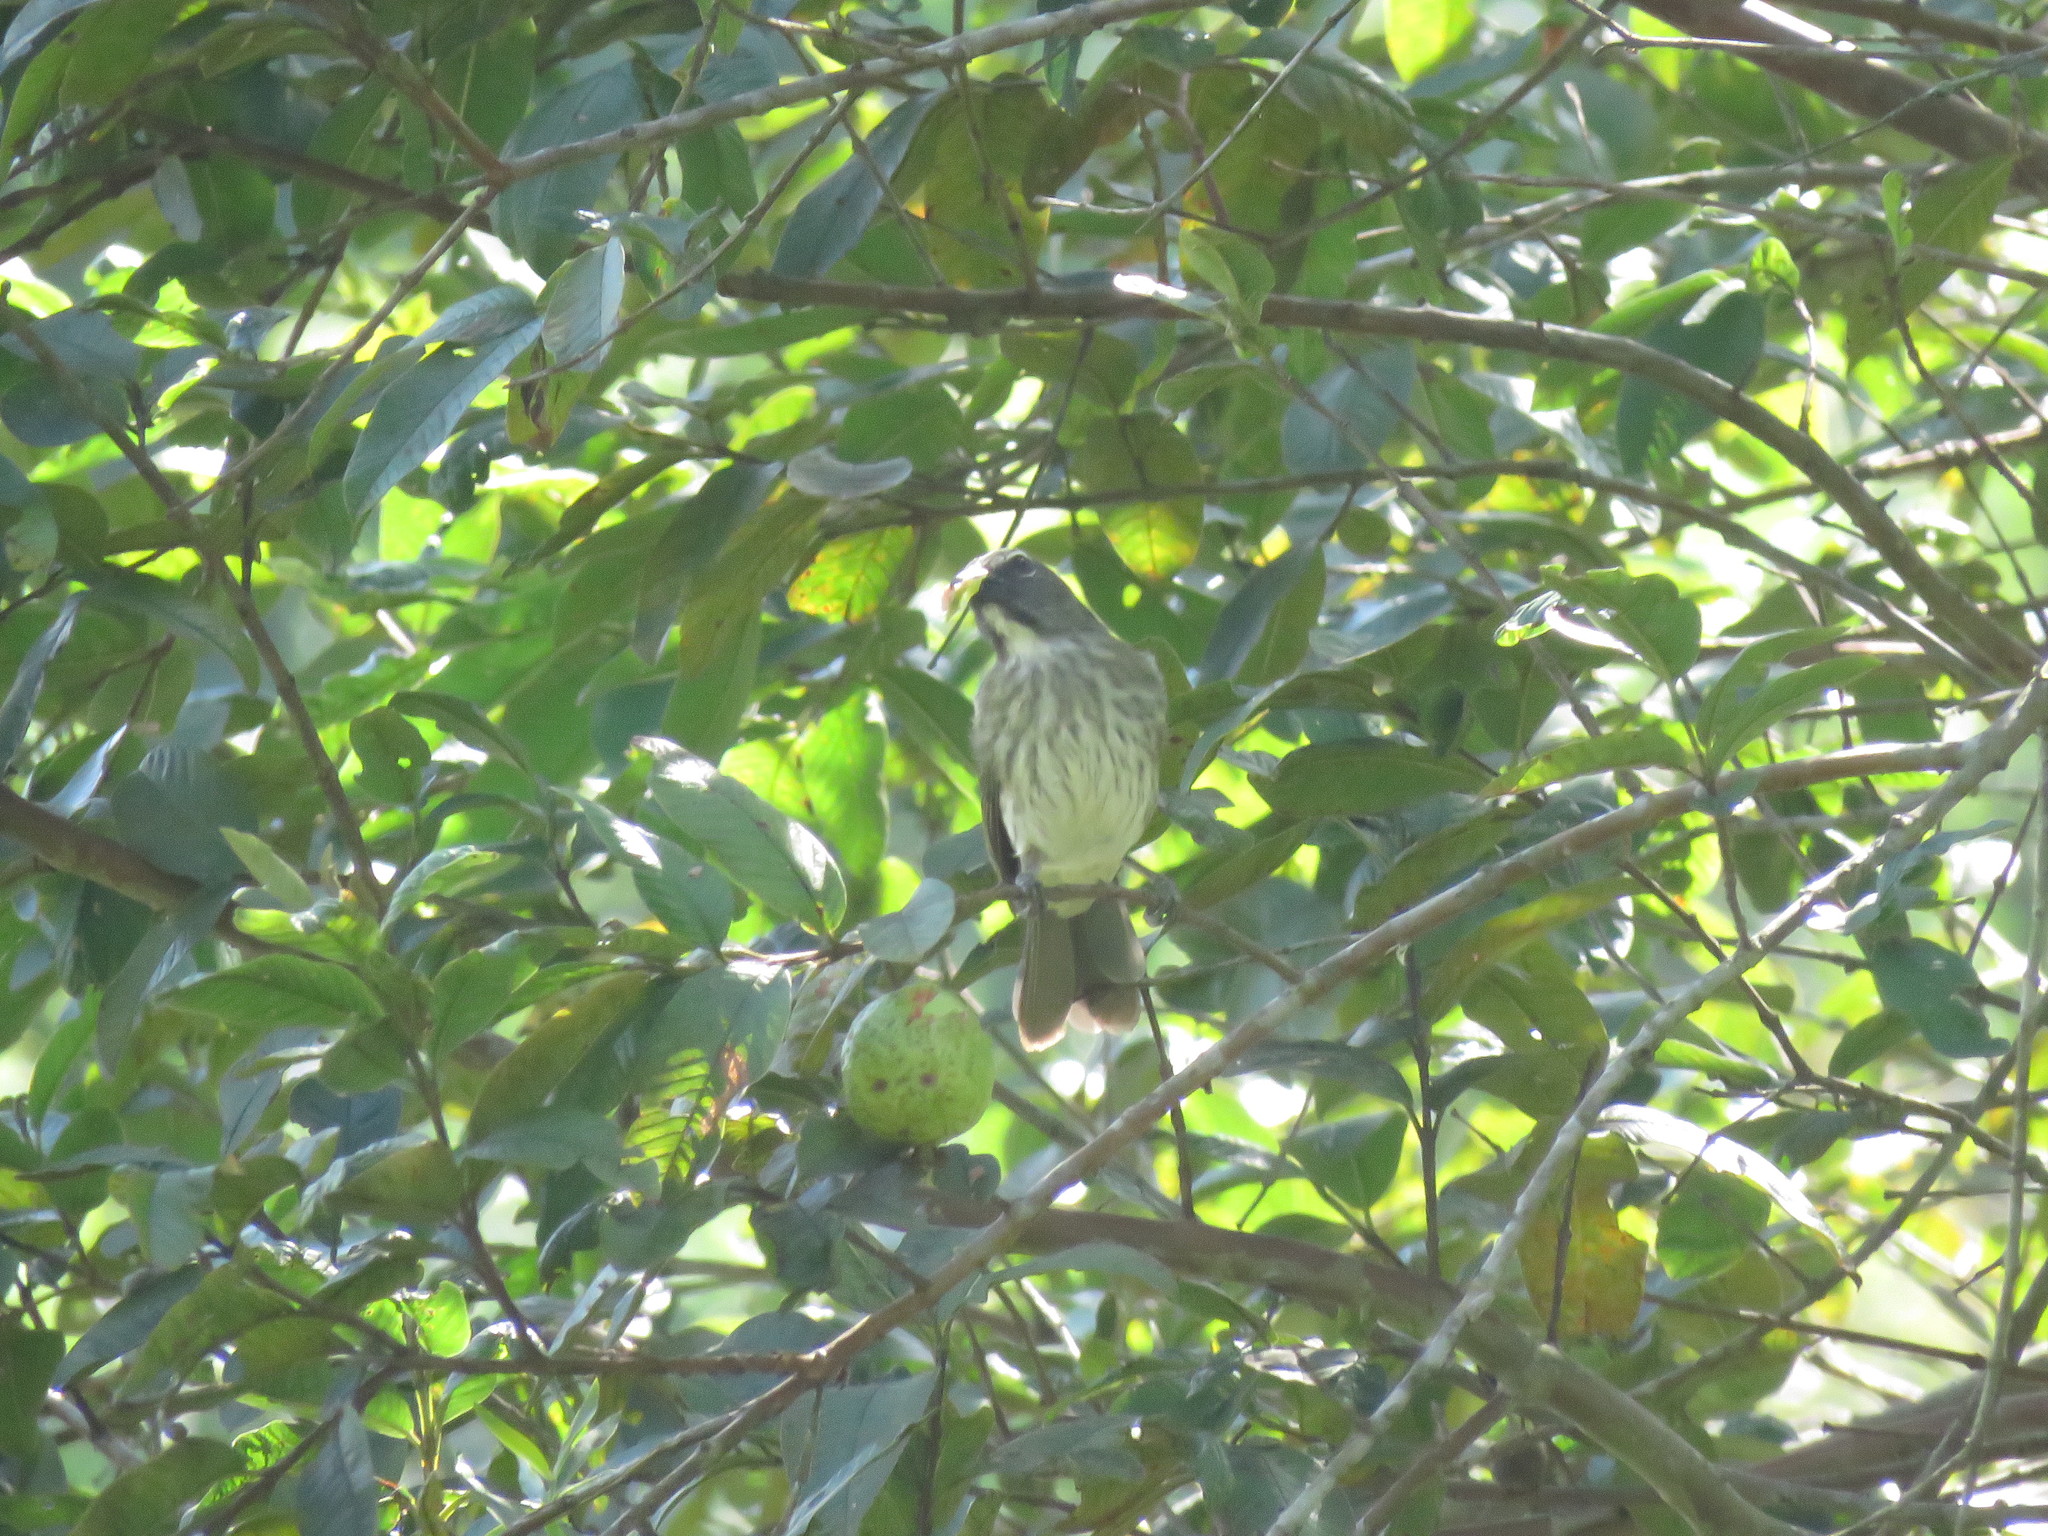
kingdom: Animalia
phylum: Chordata
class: Aves
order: Passeriformes
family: Thraupidae
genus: Saltator
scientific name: Saltator striatipectus
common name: Streaked saltator
